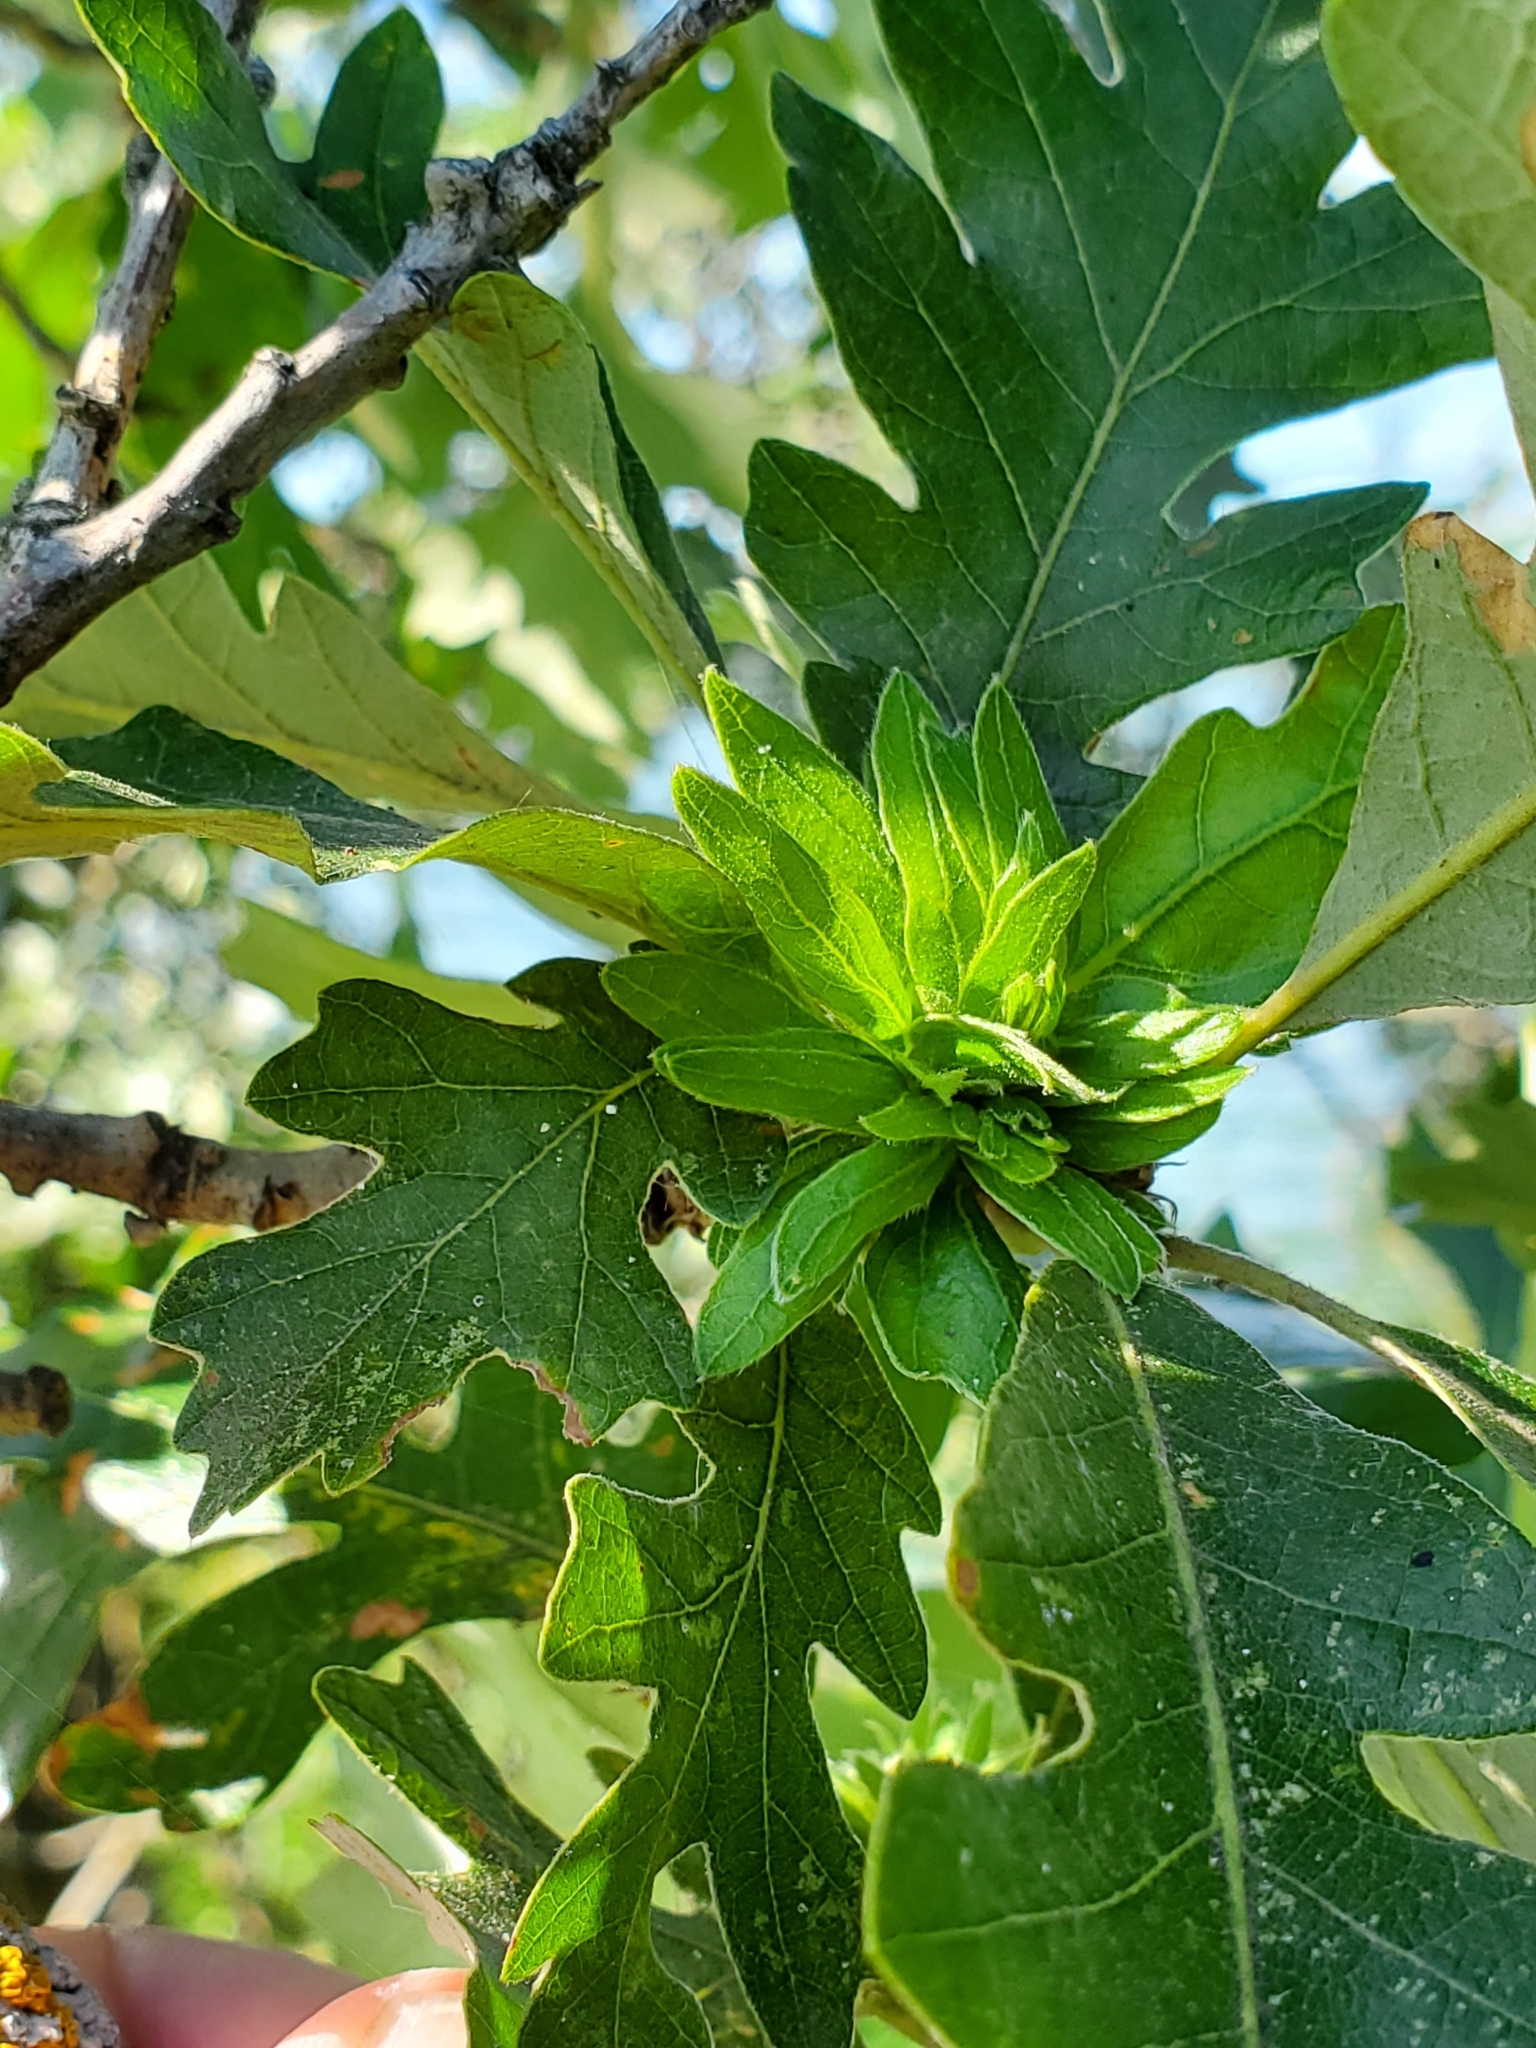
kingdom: Animalia
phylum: Arthropoda
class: Insecta
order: Hymenoptera
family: Cynipidae
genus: Andricus
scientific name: Andricus
